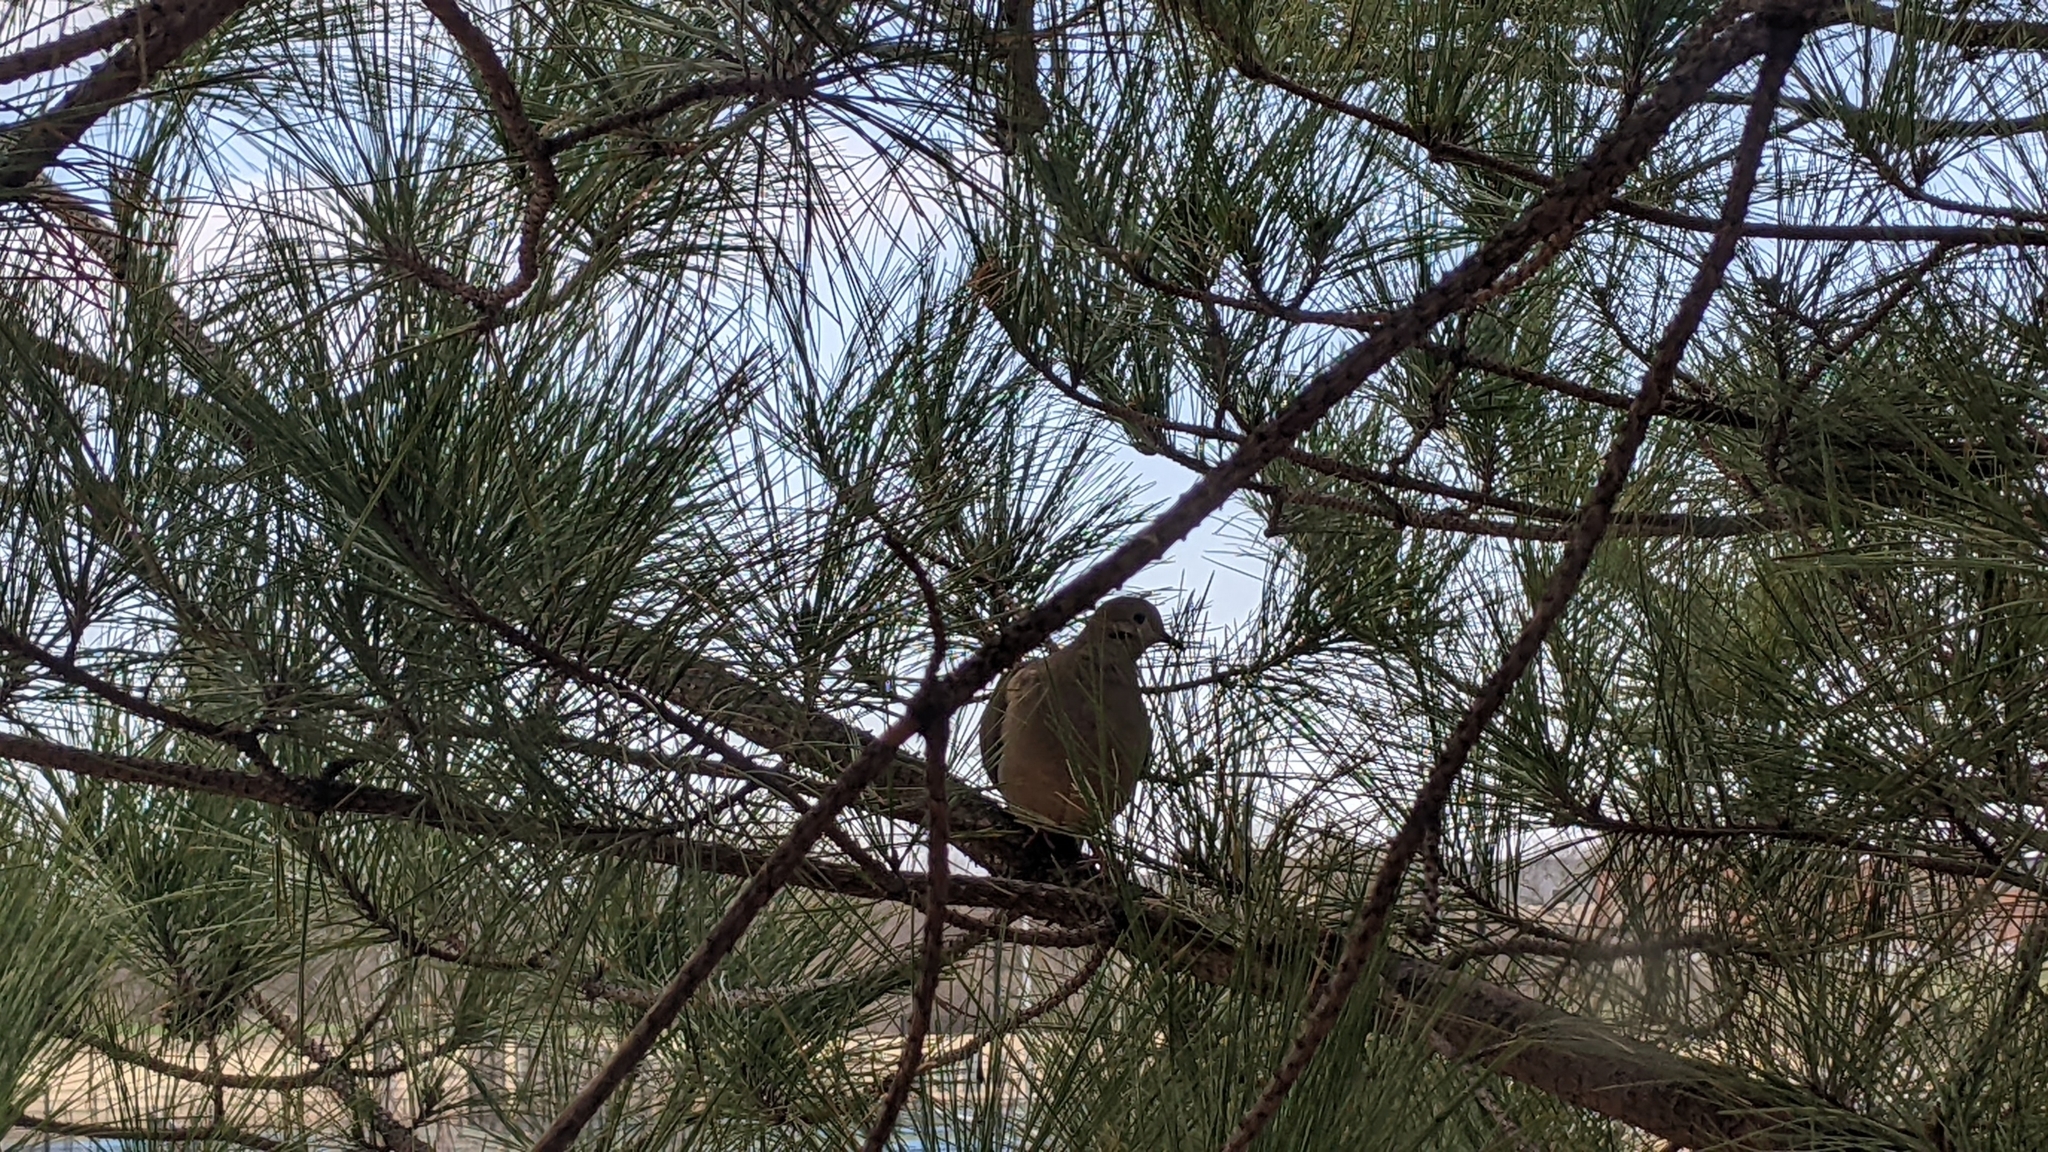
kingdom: Animalia
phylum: Chordata
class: Aves
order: Columbiformes
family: Columbidae
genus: Zenaida
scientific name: Zenaida macroura
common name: Mourning dove
